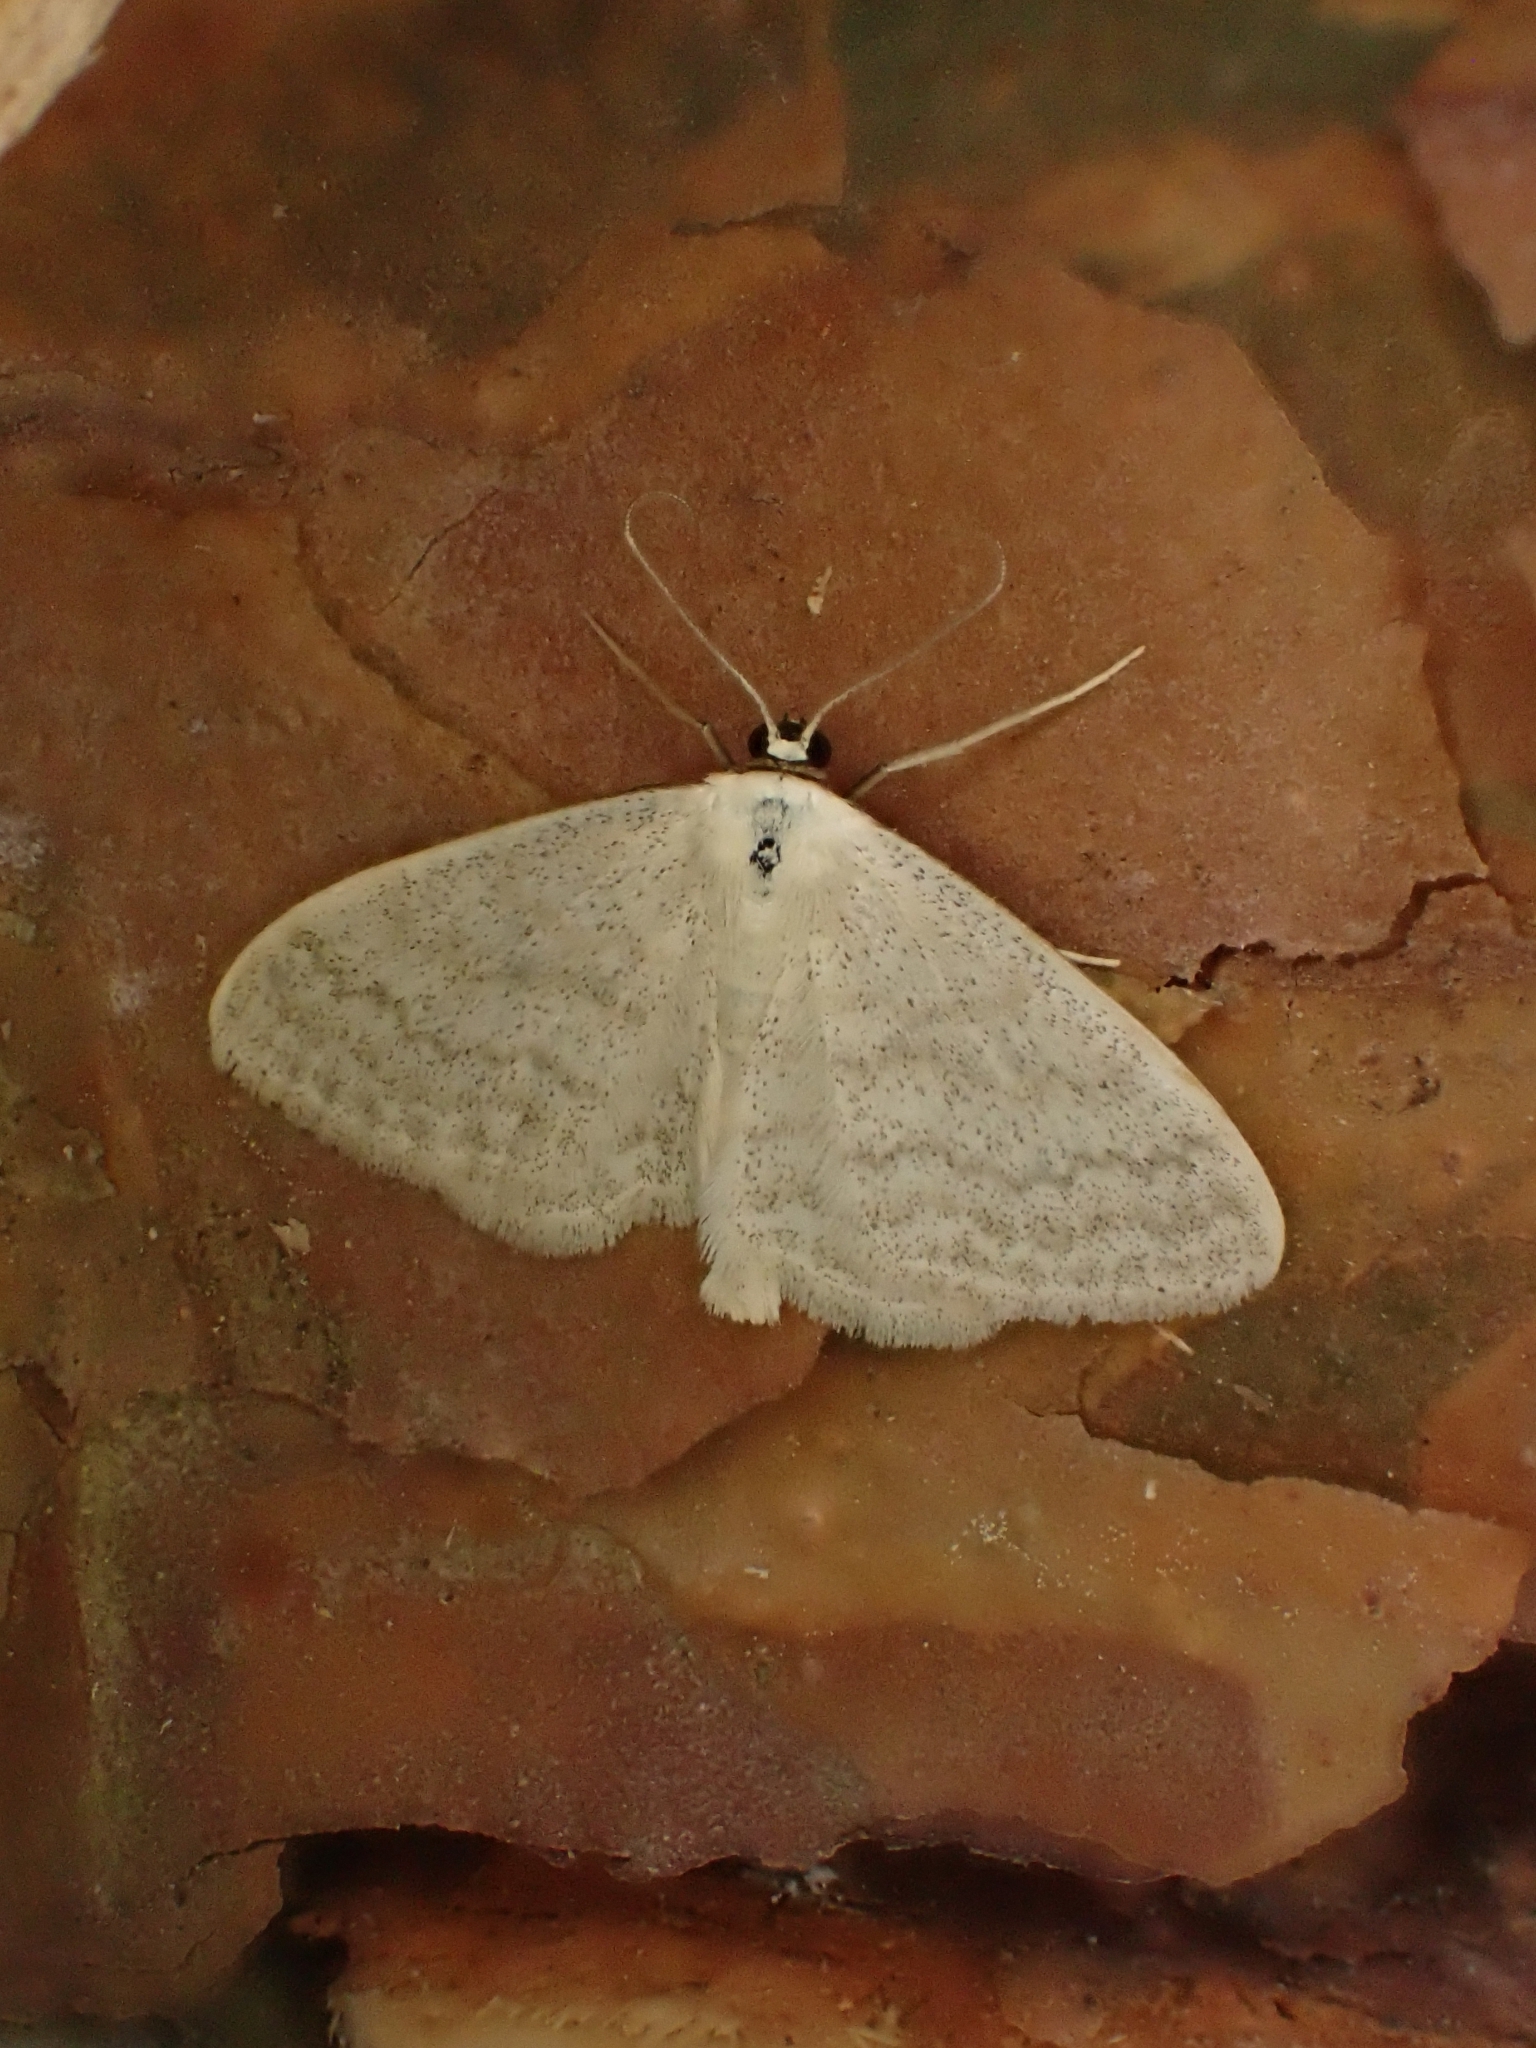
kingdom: Animalia
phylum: Arthropoda
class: Insecta
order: Lepidoptera
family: Geometridae
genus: Scopula
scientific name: Scopula floslactata
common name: Cream wave
